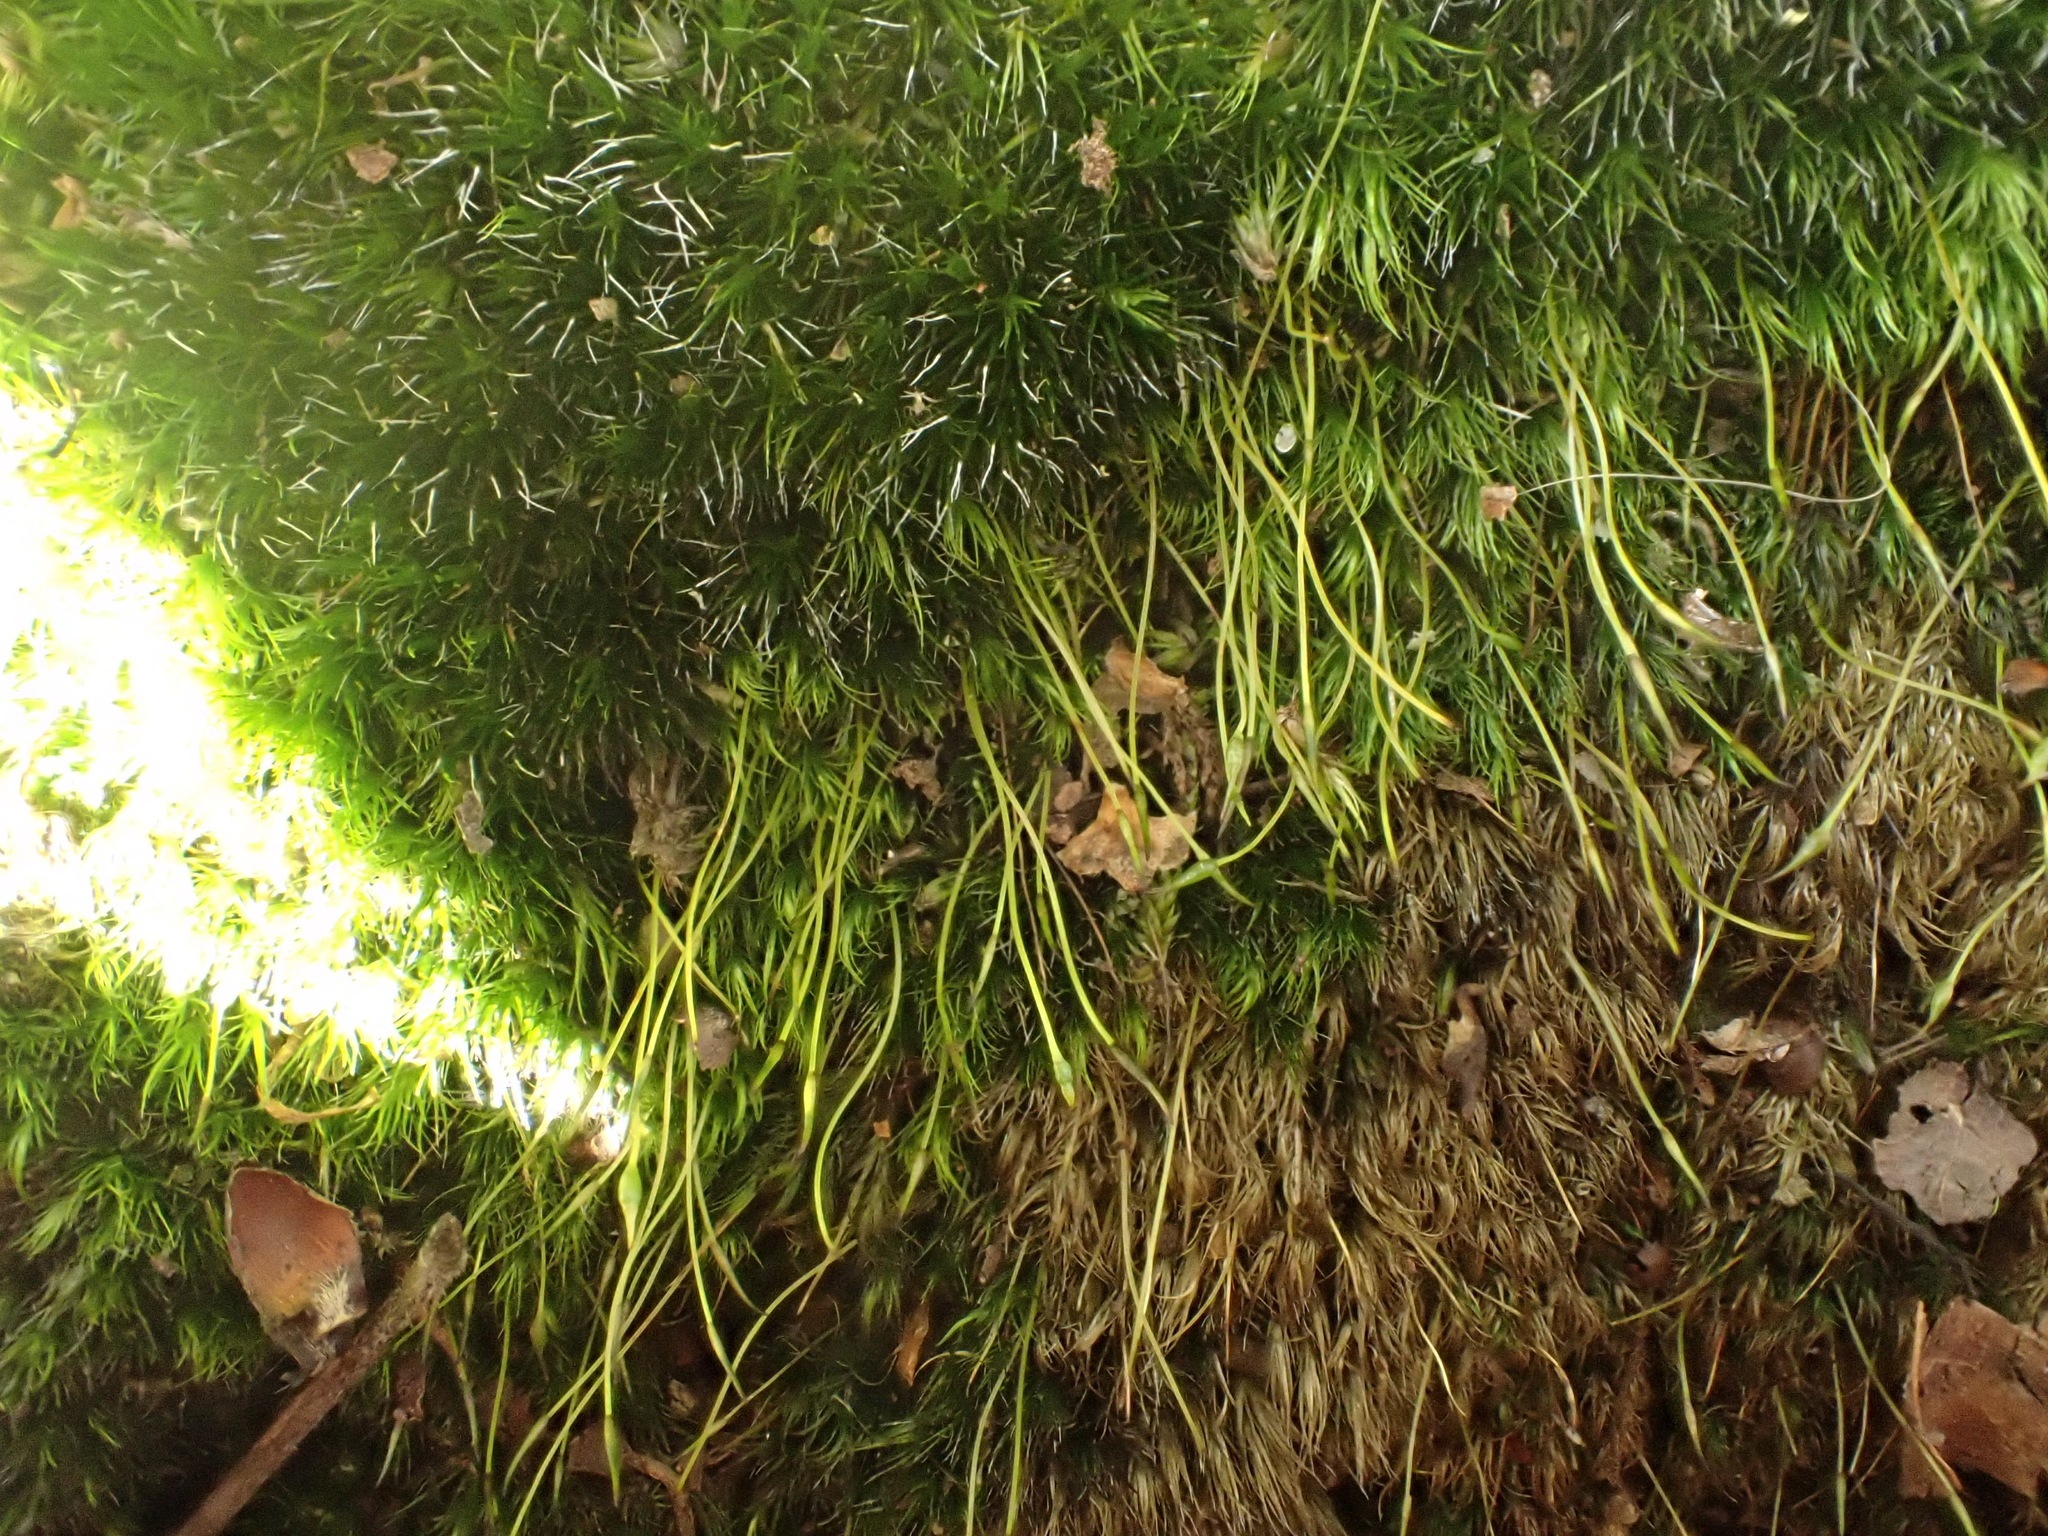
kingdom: Plantae
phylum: Bryophyta
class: Bryopsida
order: Dicranales
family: Leucobryaceae
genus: Campylopus
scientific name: Campylopus introflexus
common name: Heath star moss
